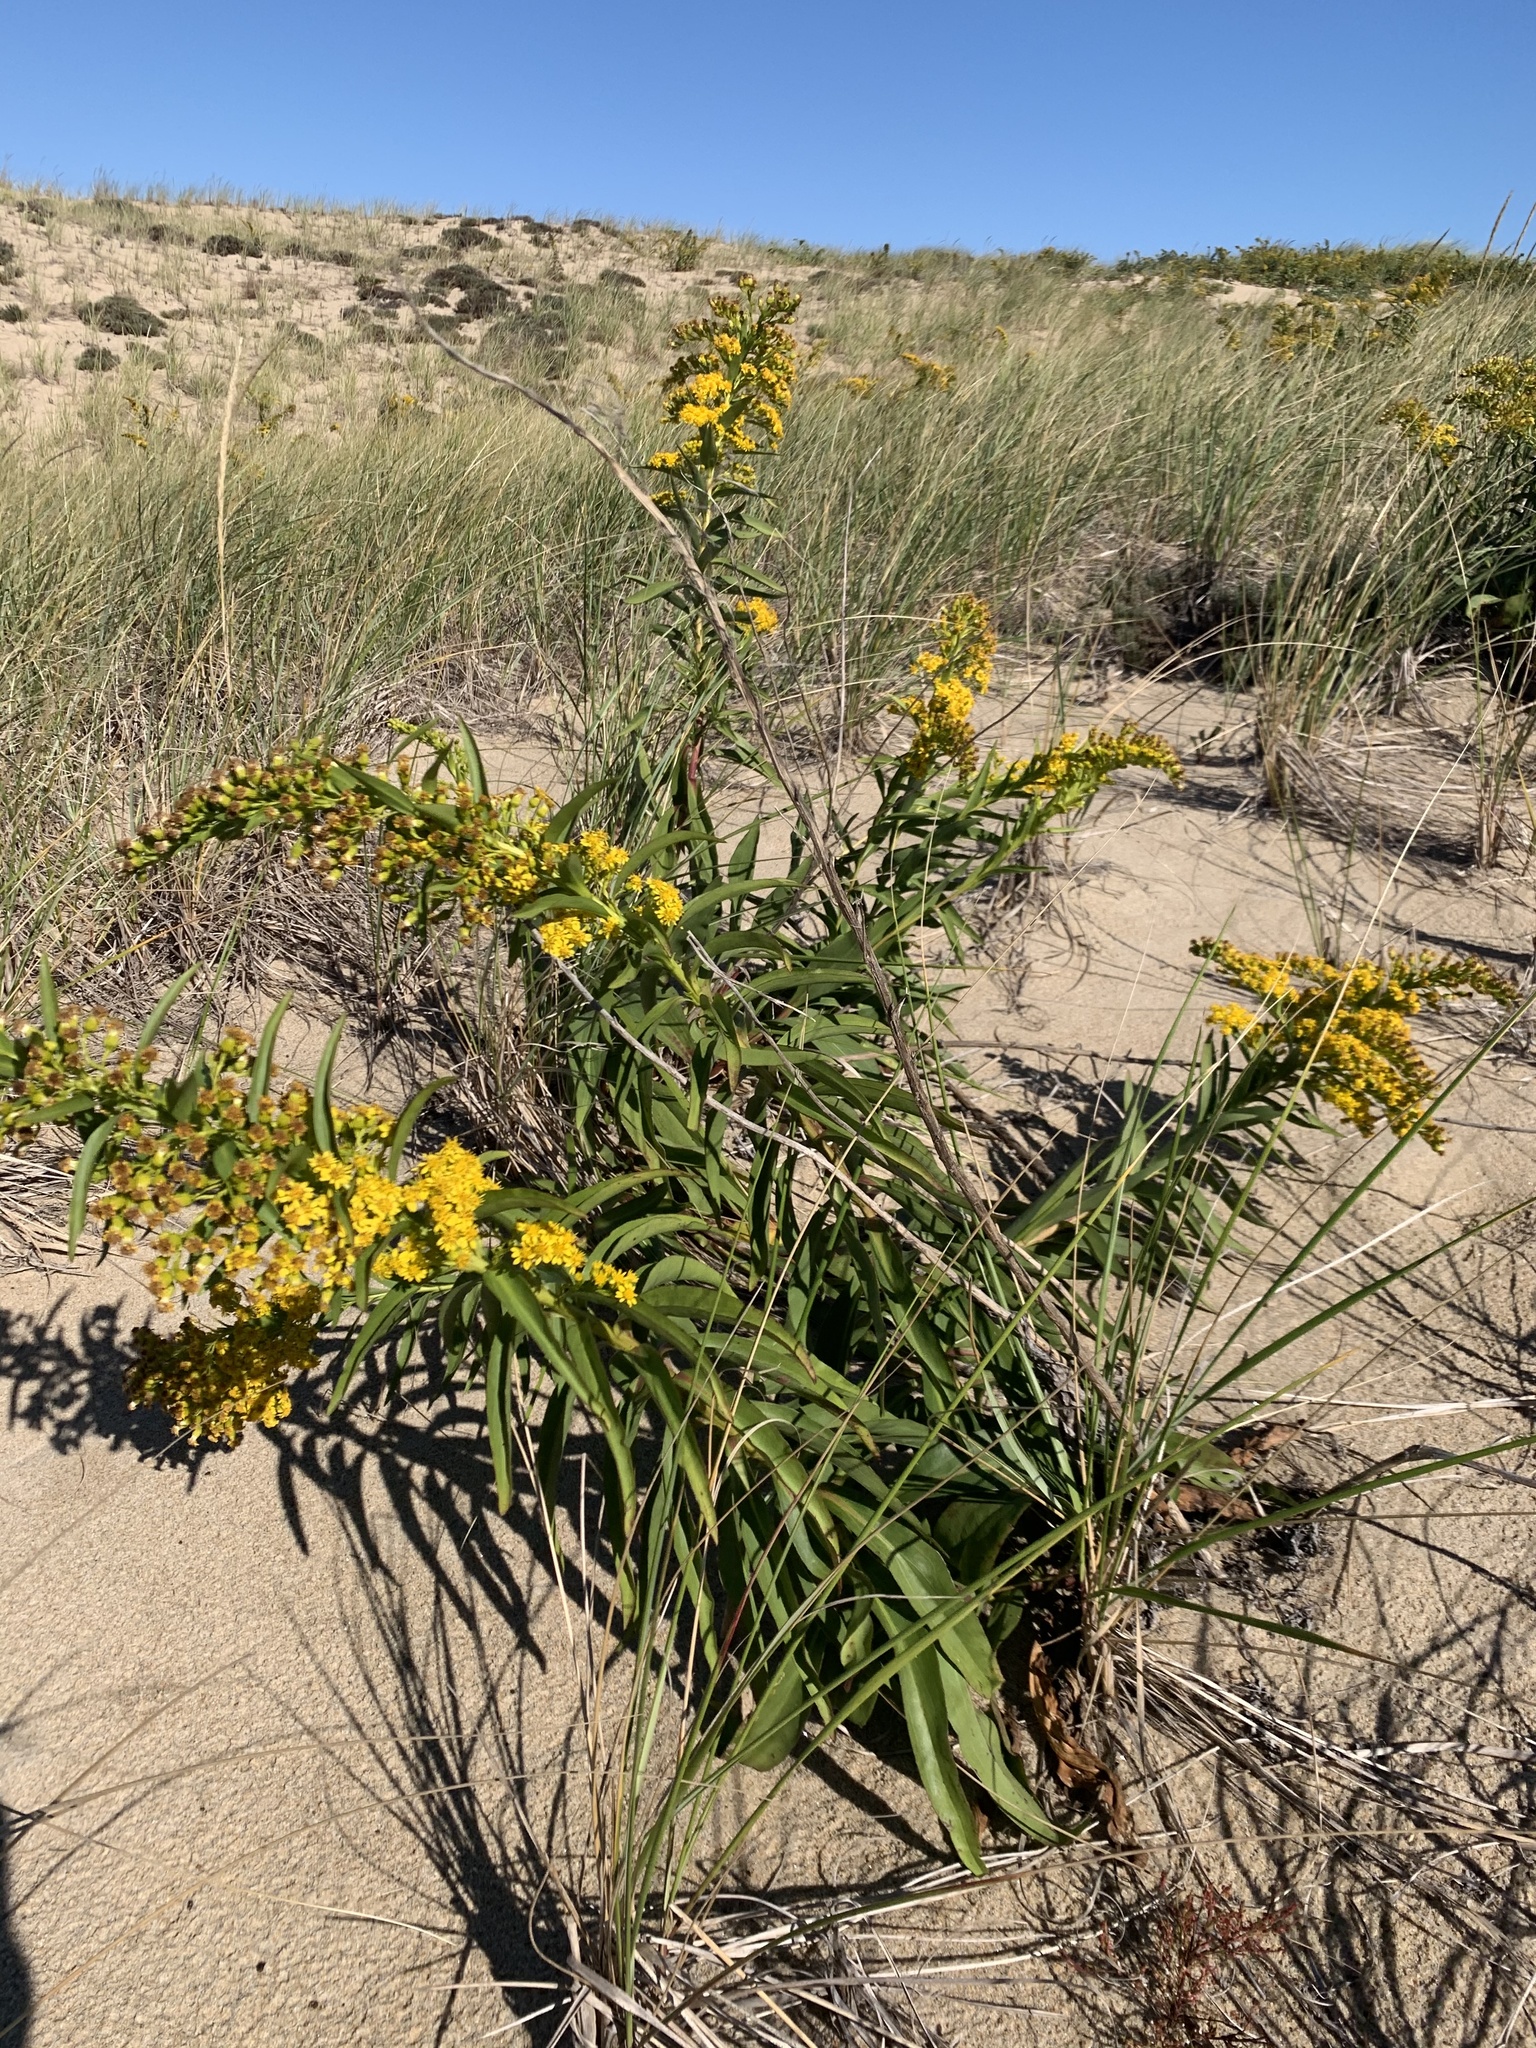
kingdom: Plantae
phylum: Tracheophyta
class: Magnoliopsida
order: Asterales
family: Asteraceae
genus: Solidago
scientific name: Solidago sempervirens
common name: Salt-marsh goldenrod
